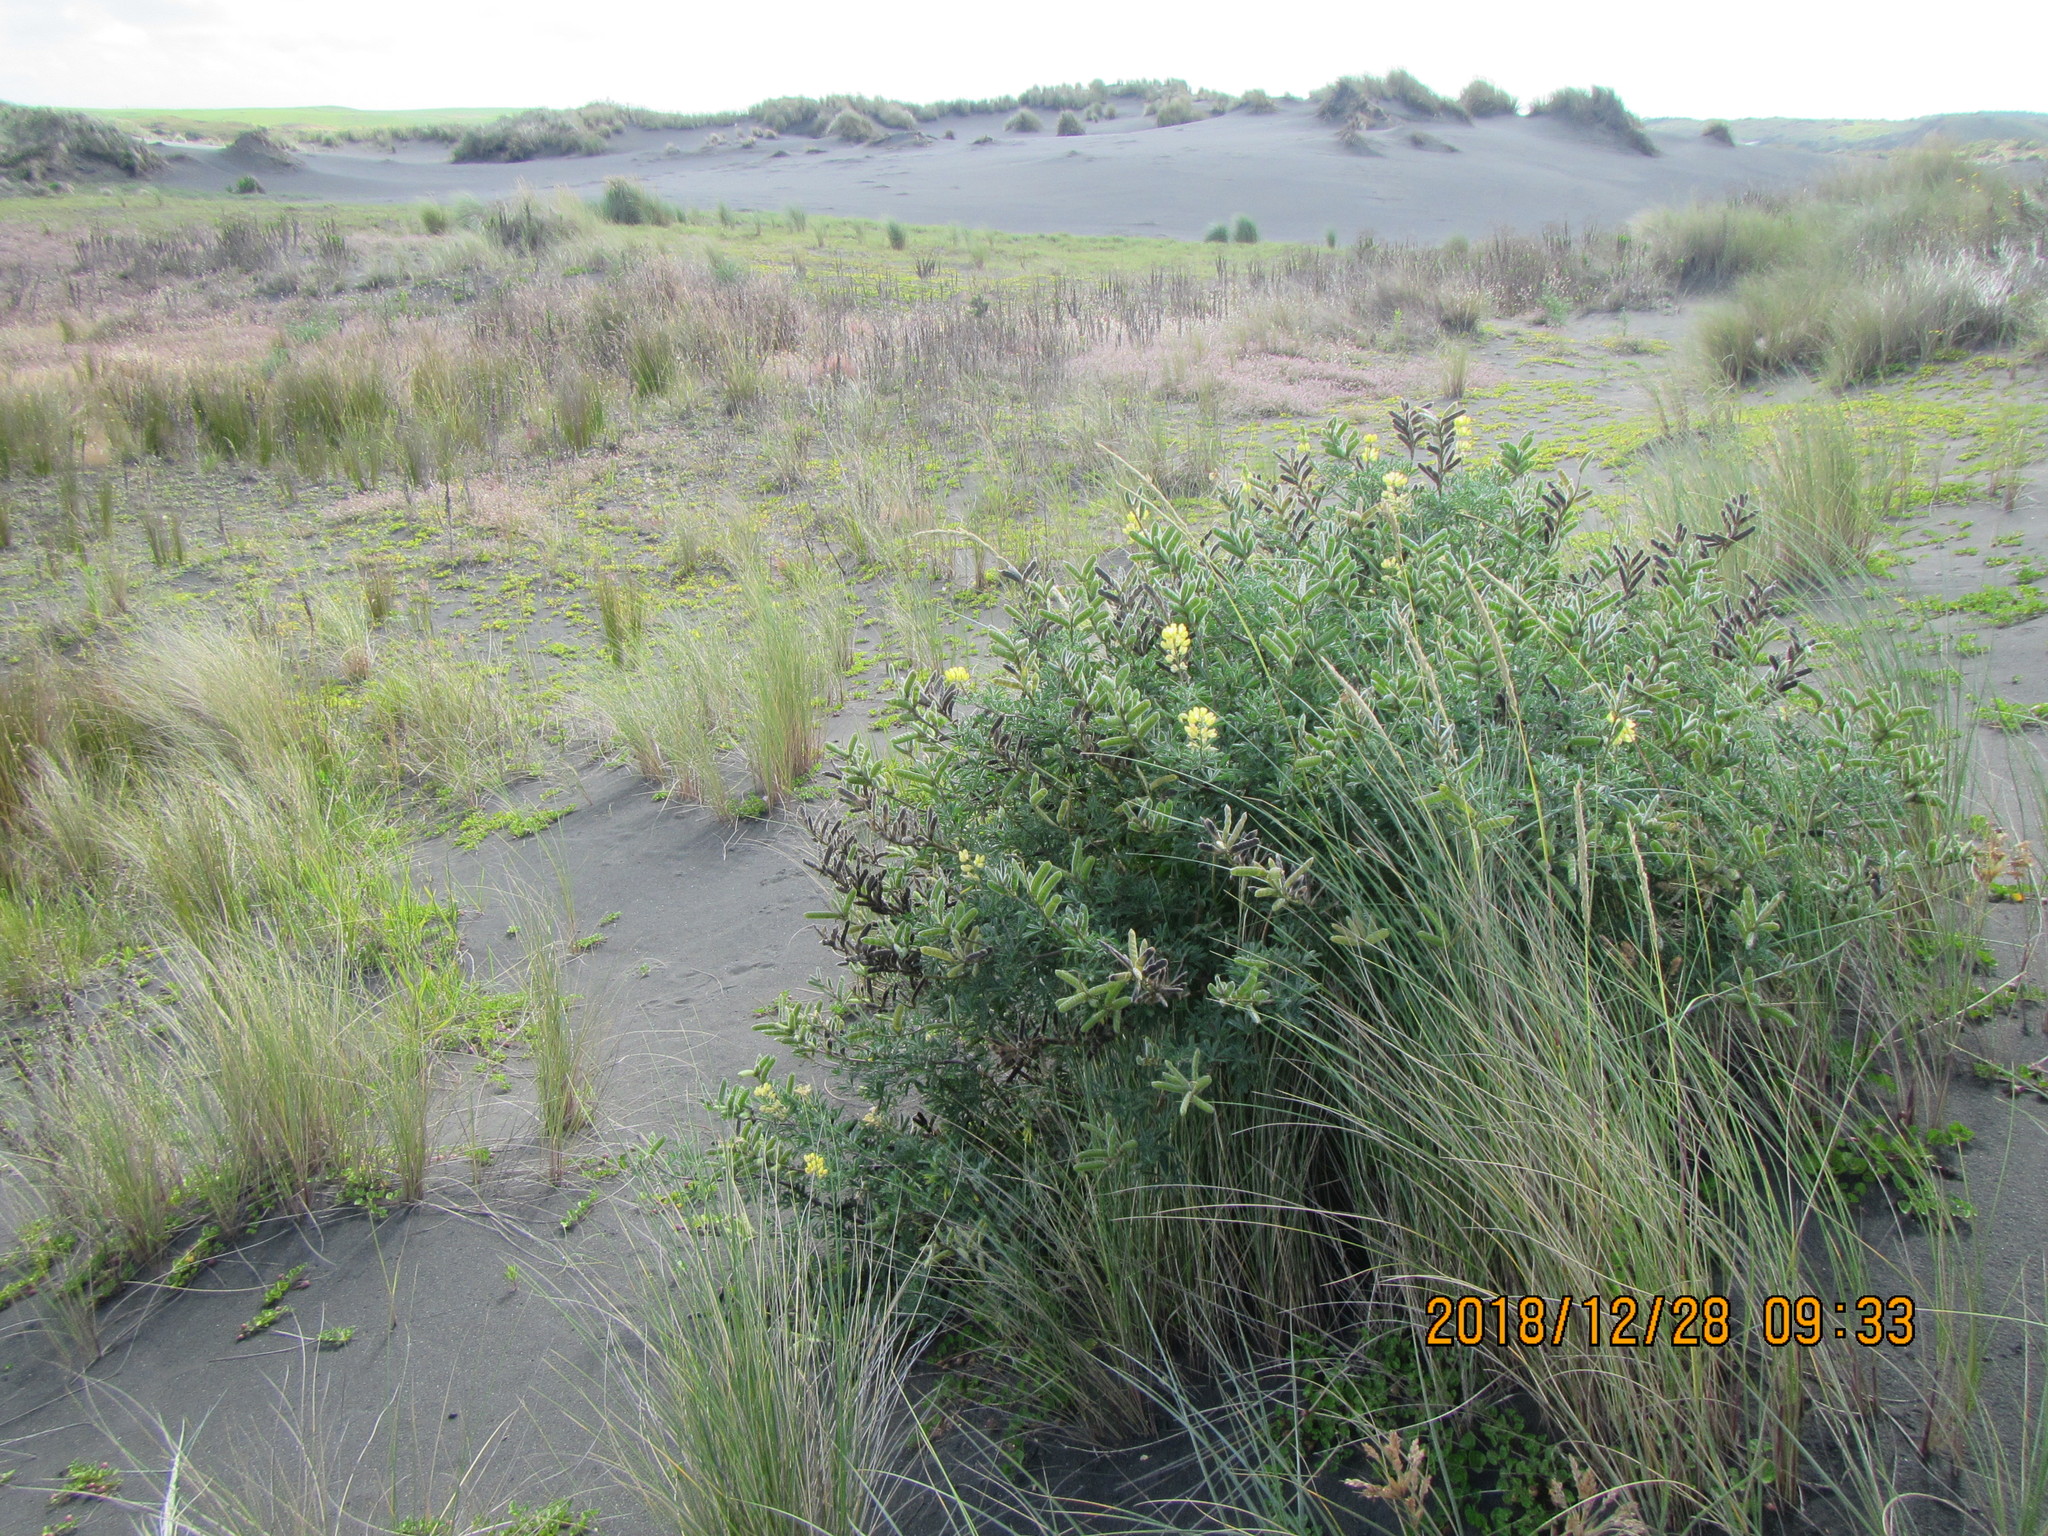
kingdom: Plantae
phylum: Tracheophyta
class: Magnoliopsida
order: Fabales
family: Fabaceae
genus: Lupinus
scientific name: Lupinus arboreus
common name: Yellow bush lupine
